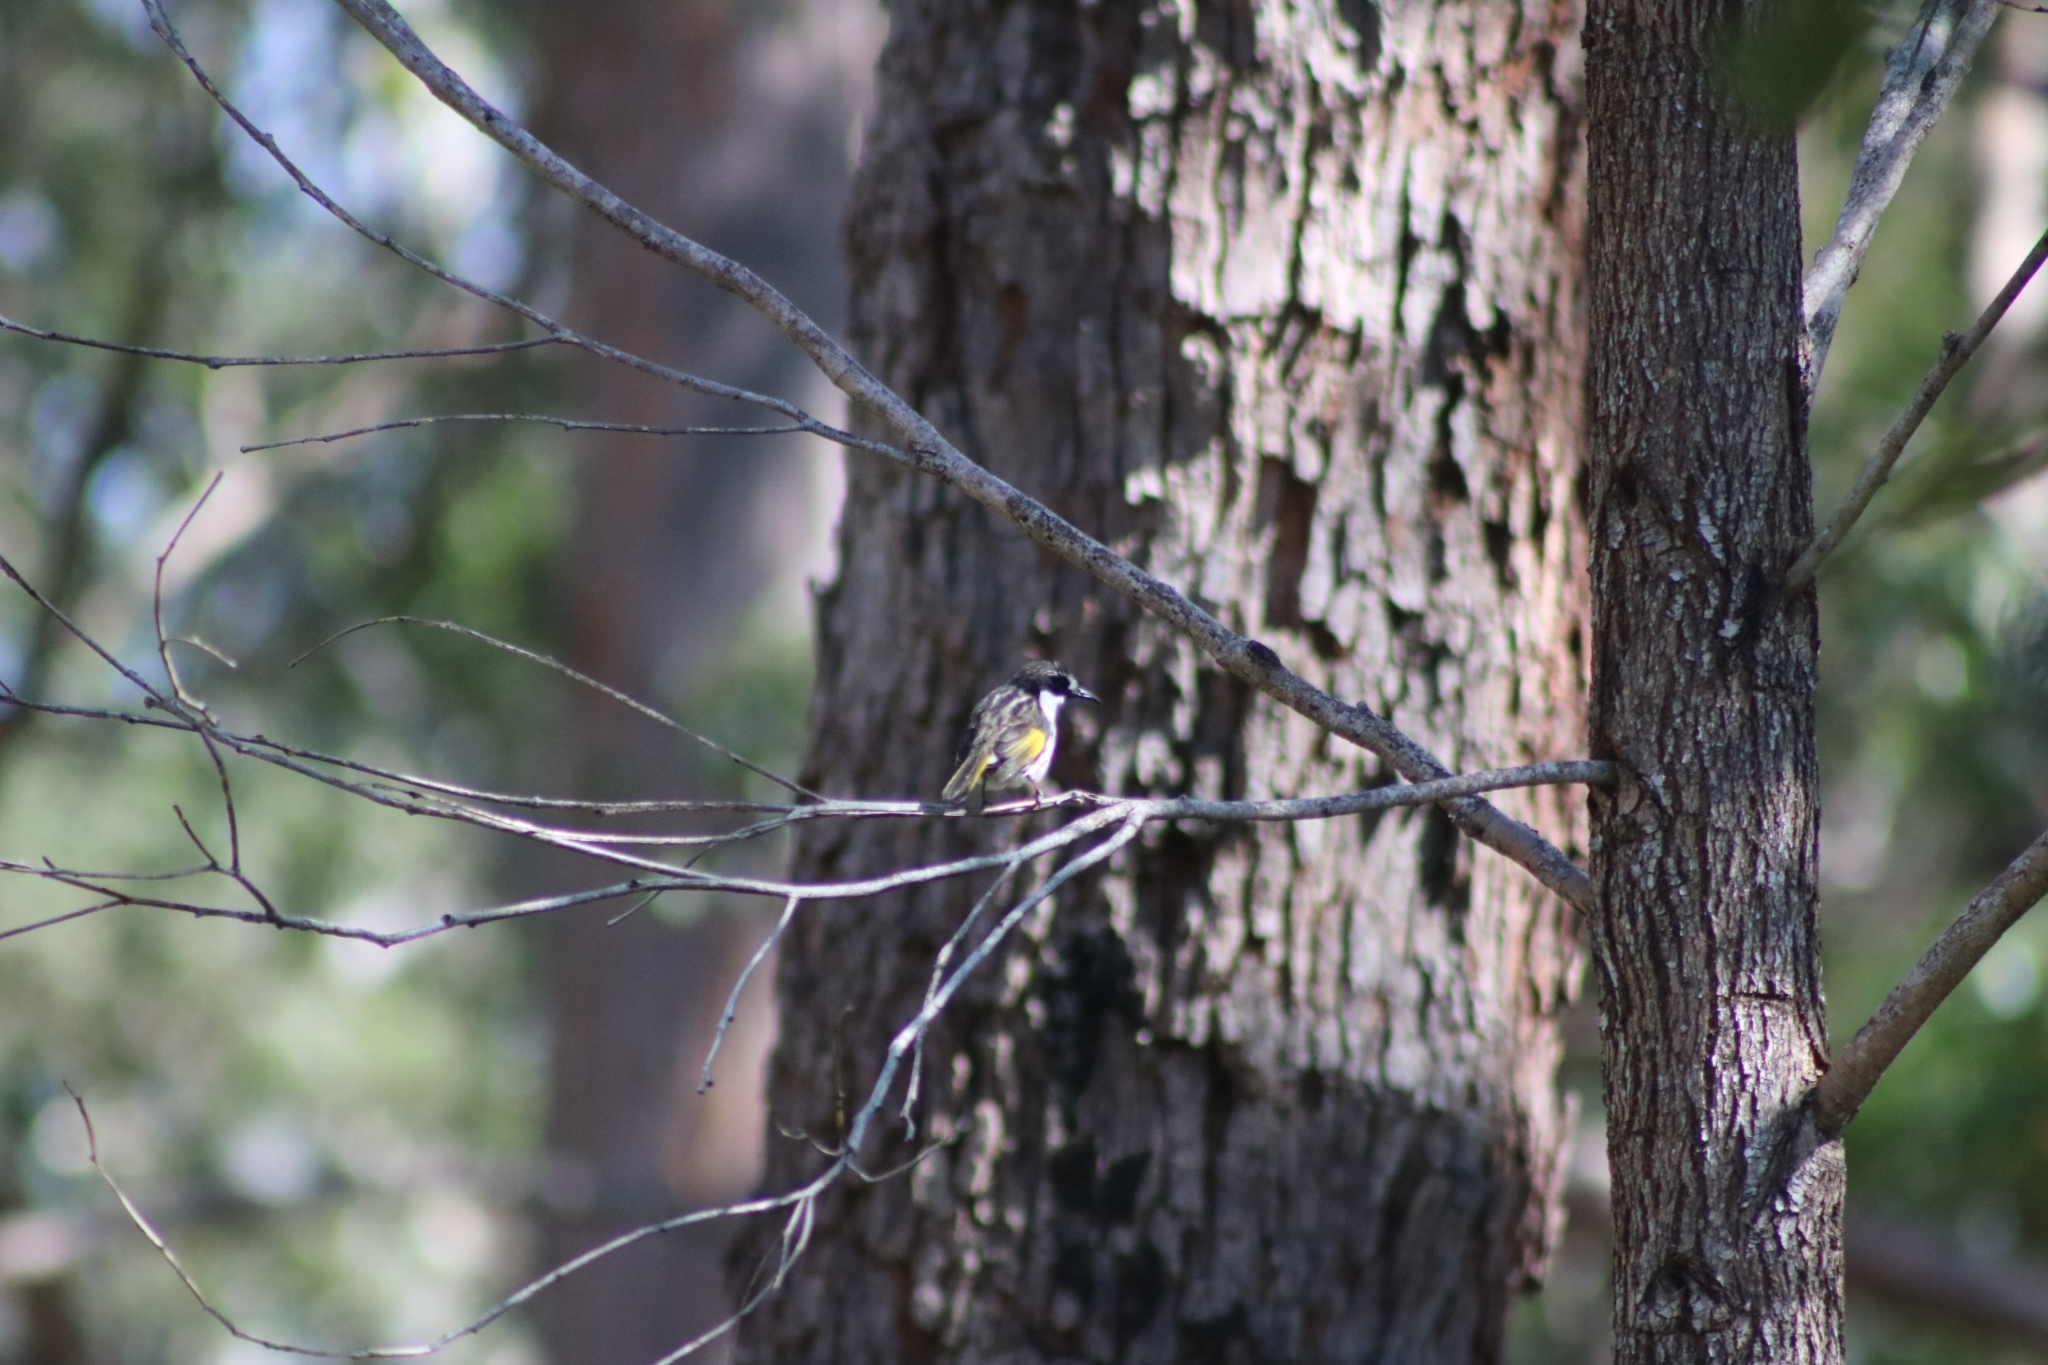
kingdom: Animalia
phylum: Chordata
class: Aves
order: Passeriformes
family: Meliphagidae
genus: Phylidonyris
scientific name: Phylidonyris niger
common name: White-cheeked honeyeater
